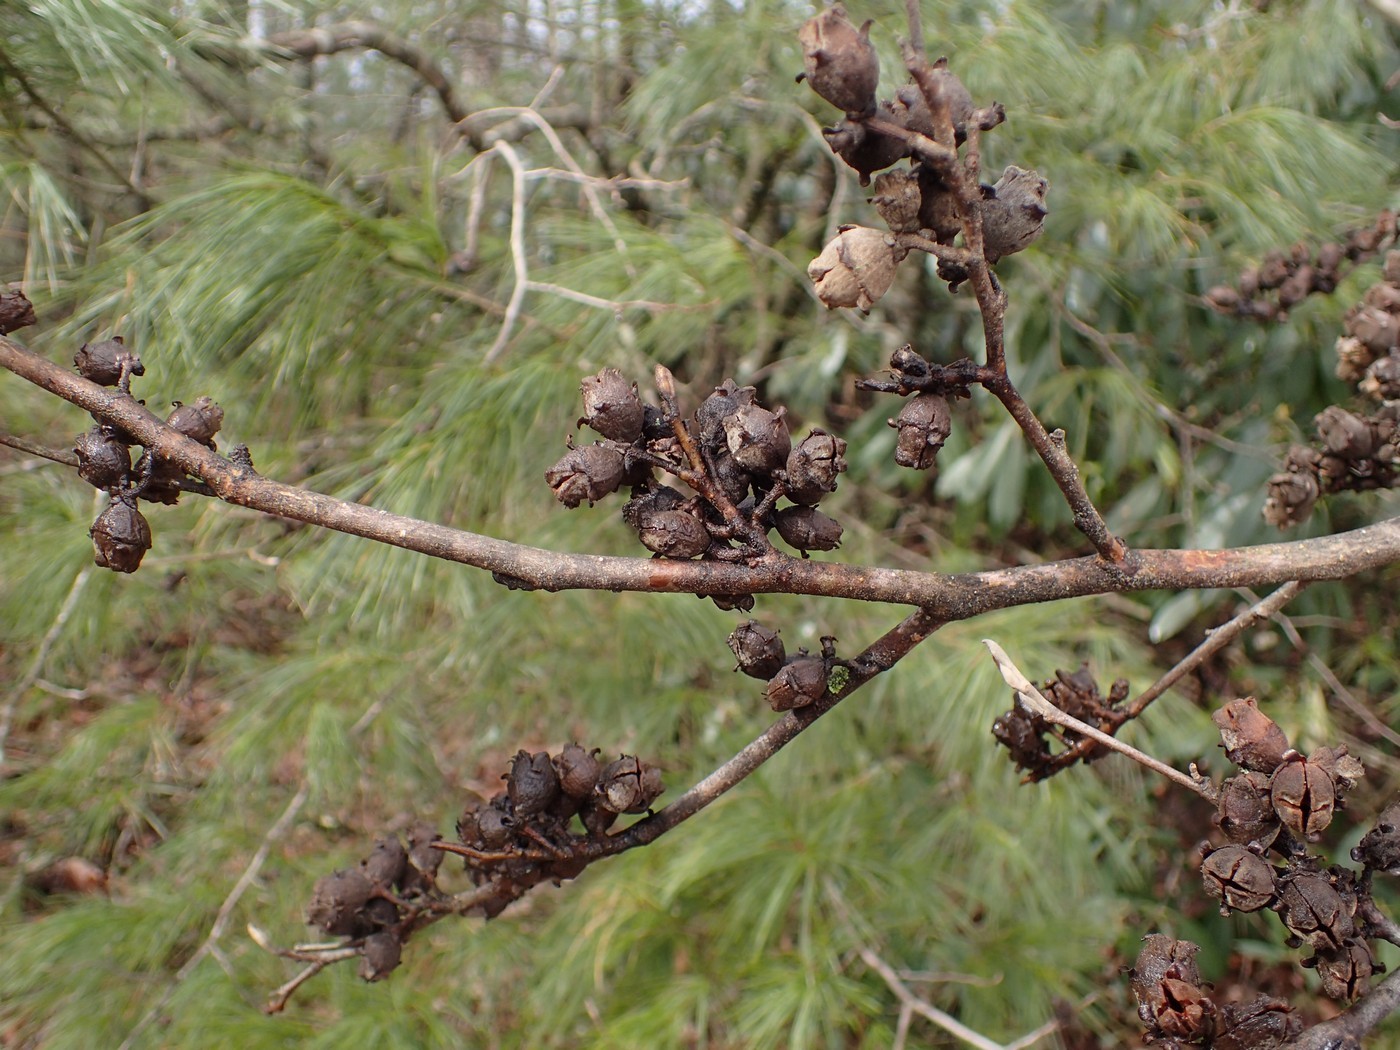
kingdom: Plantae
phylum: Tracheophyta
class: Magnoliopsida
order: Saxifragales
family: Hamamelidaceae
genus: Hamamelis
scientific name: Hamamelis virginiana
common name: Witch-hazel
